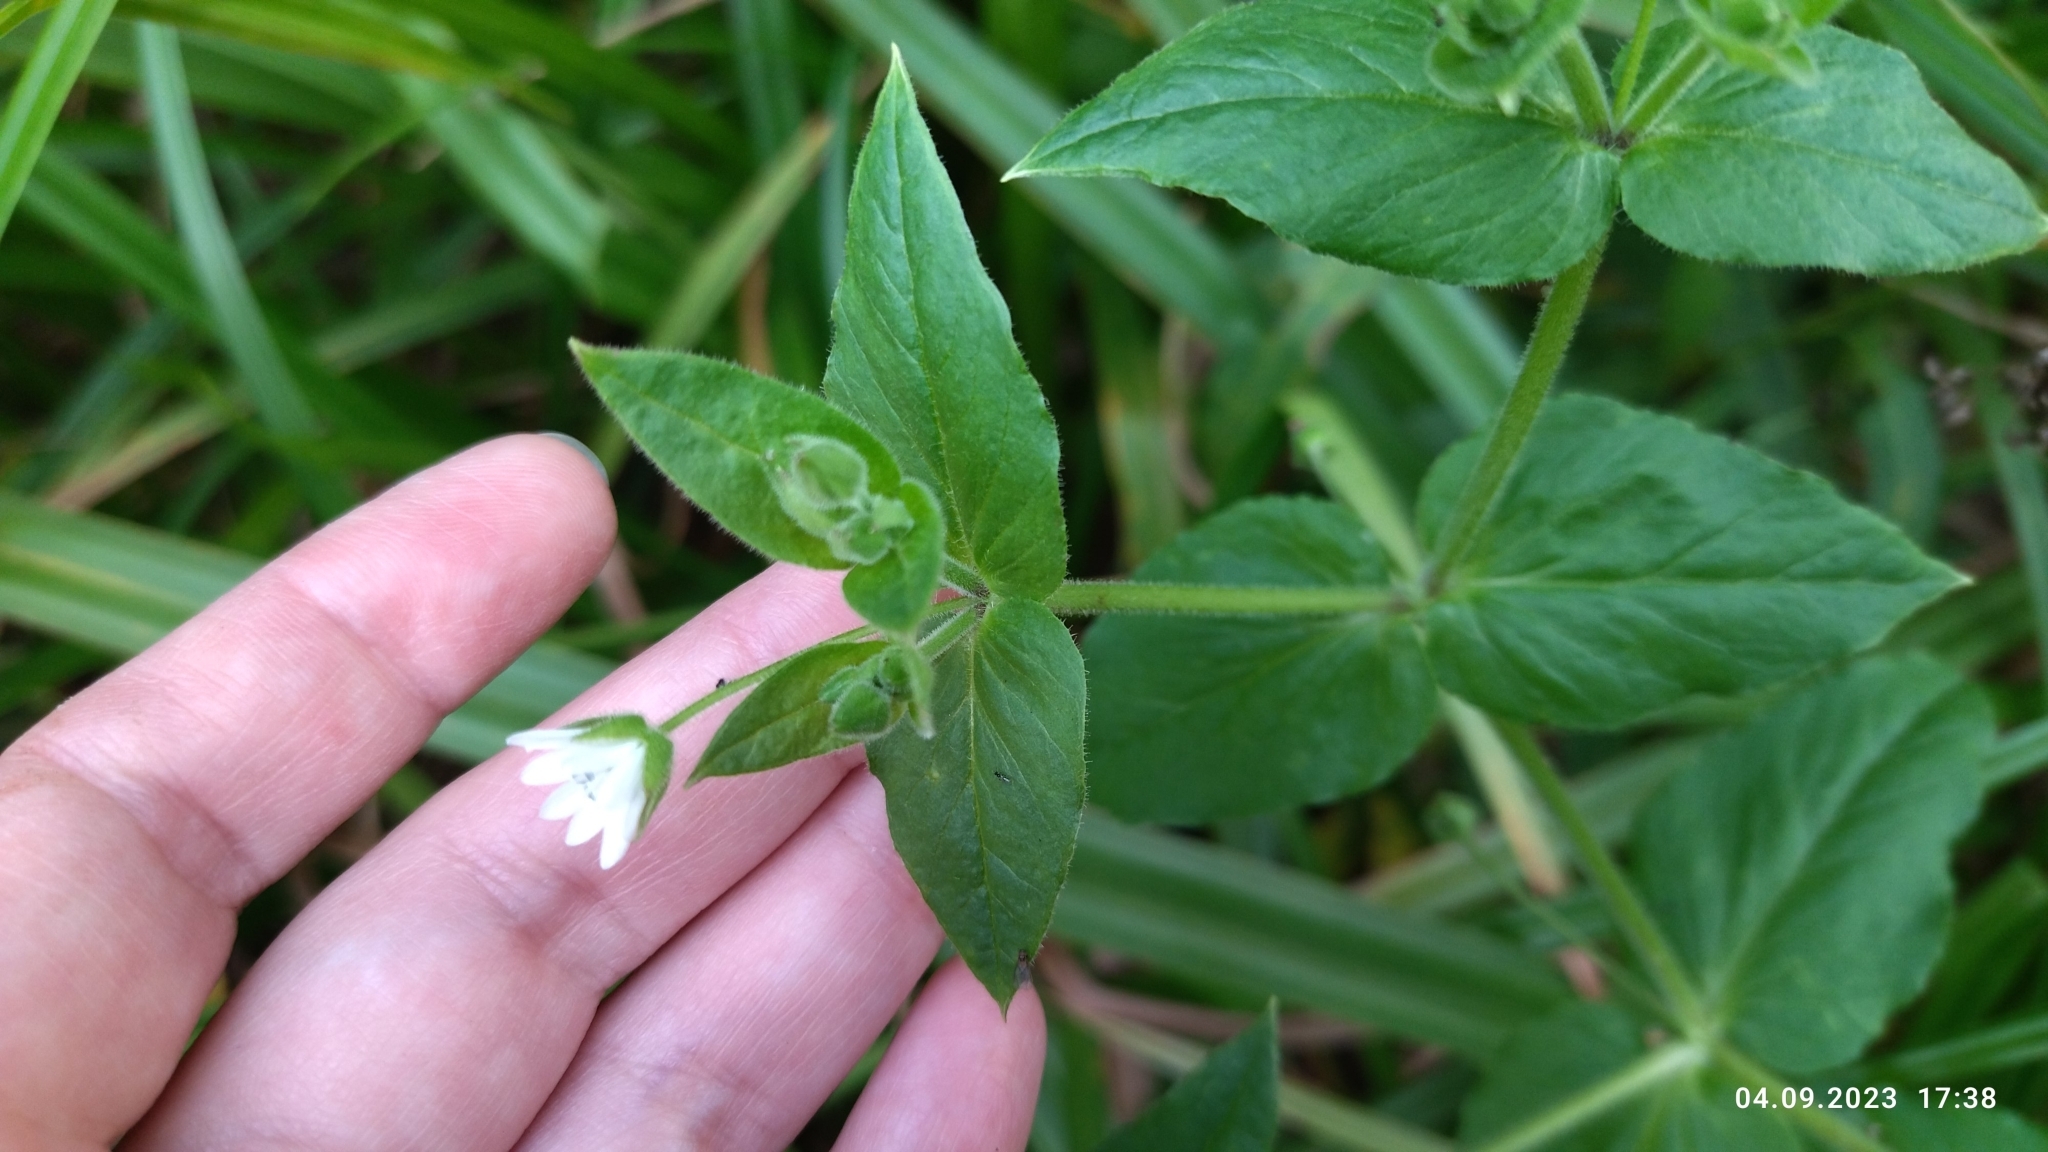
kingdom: Plantae
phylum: Tracheophyta
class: Magnoliopsida
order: Caryophyllales
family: Caryophyllaceae
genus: Stellaria
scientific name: Stellaria aquatica
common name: Water chickweed
